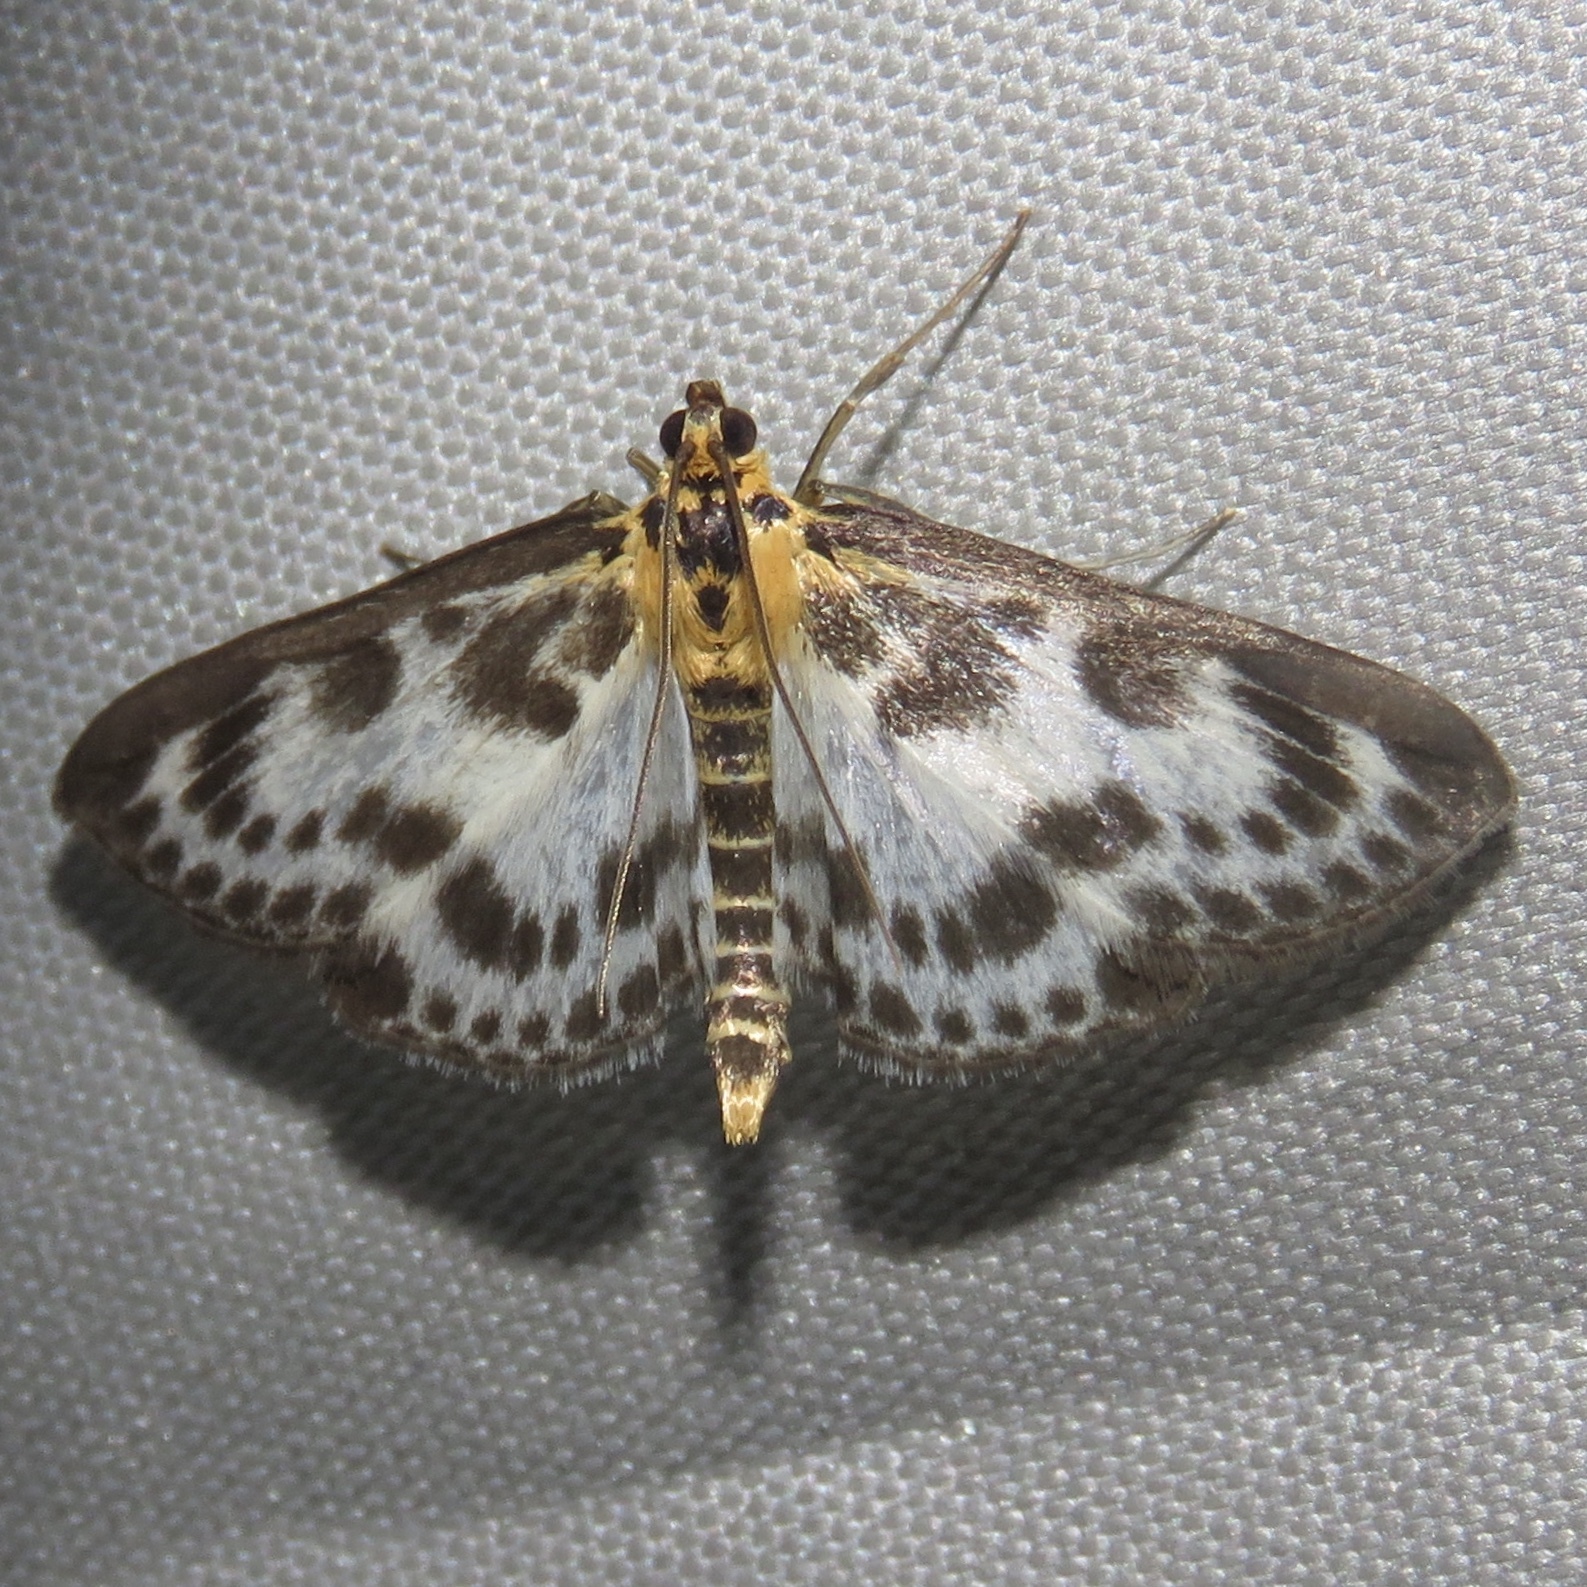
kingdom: Animalia
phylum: Arthropoda
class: Insecta
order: Lepidoptera
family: Crambidae
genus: Anania
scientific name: Anania hortulata
